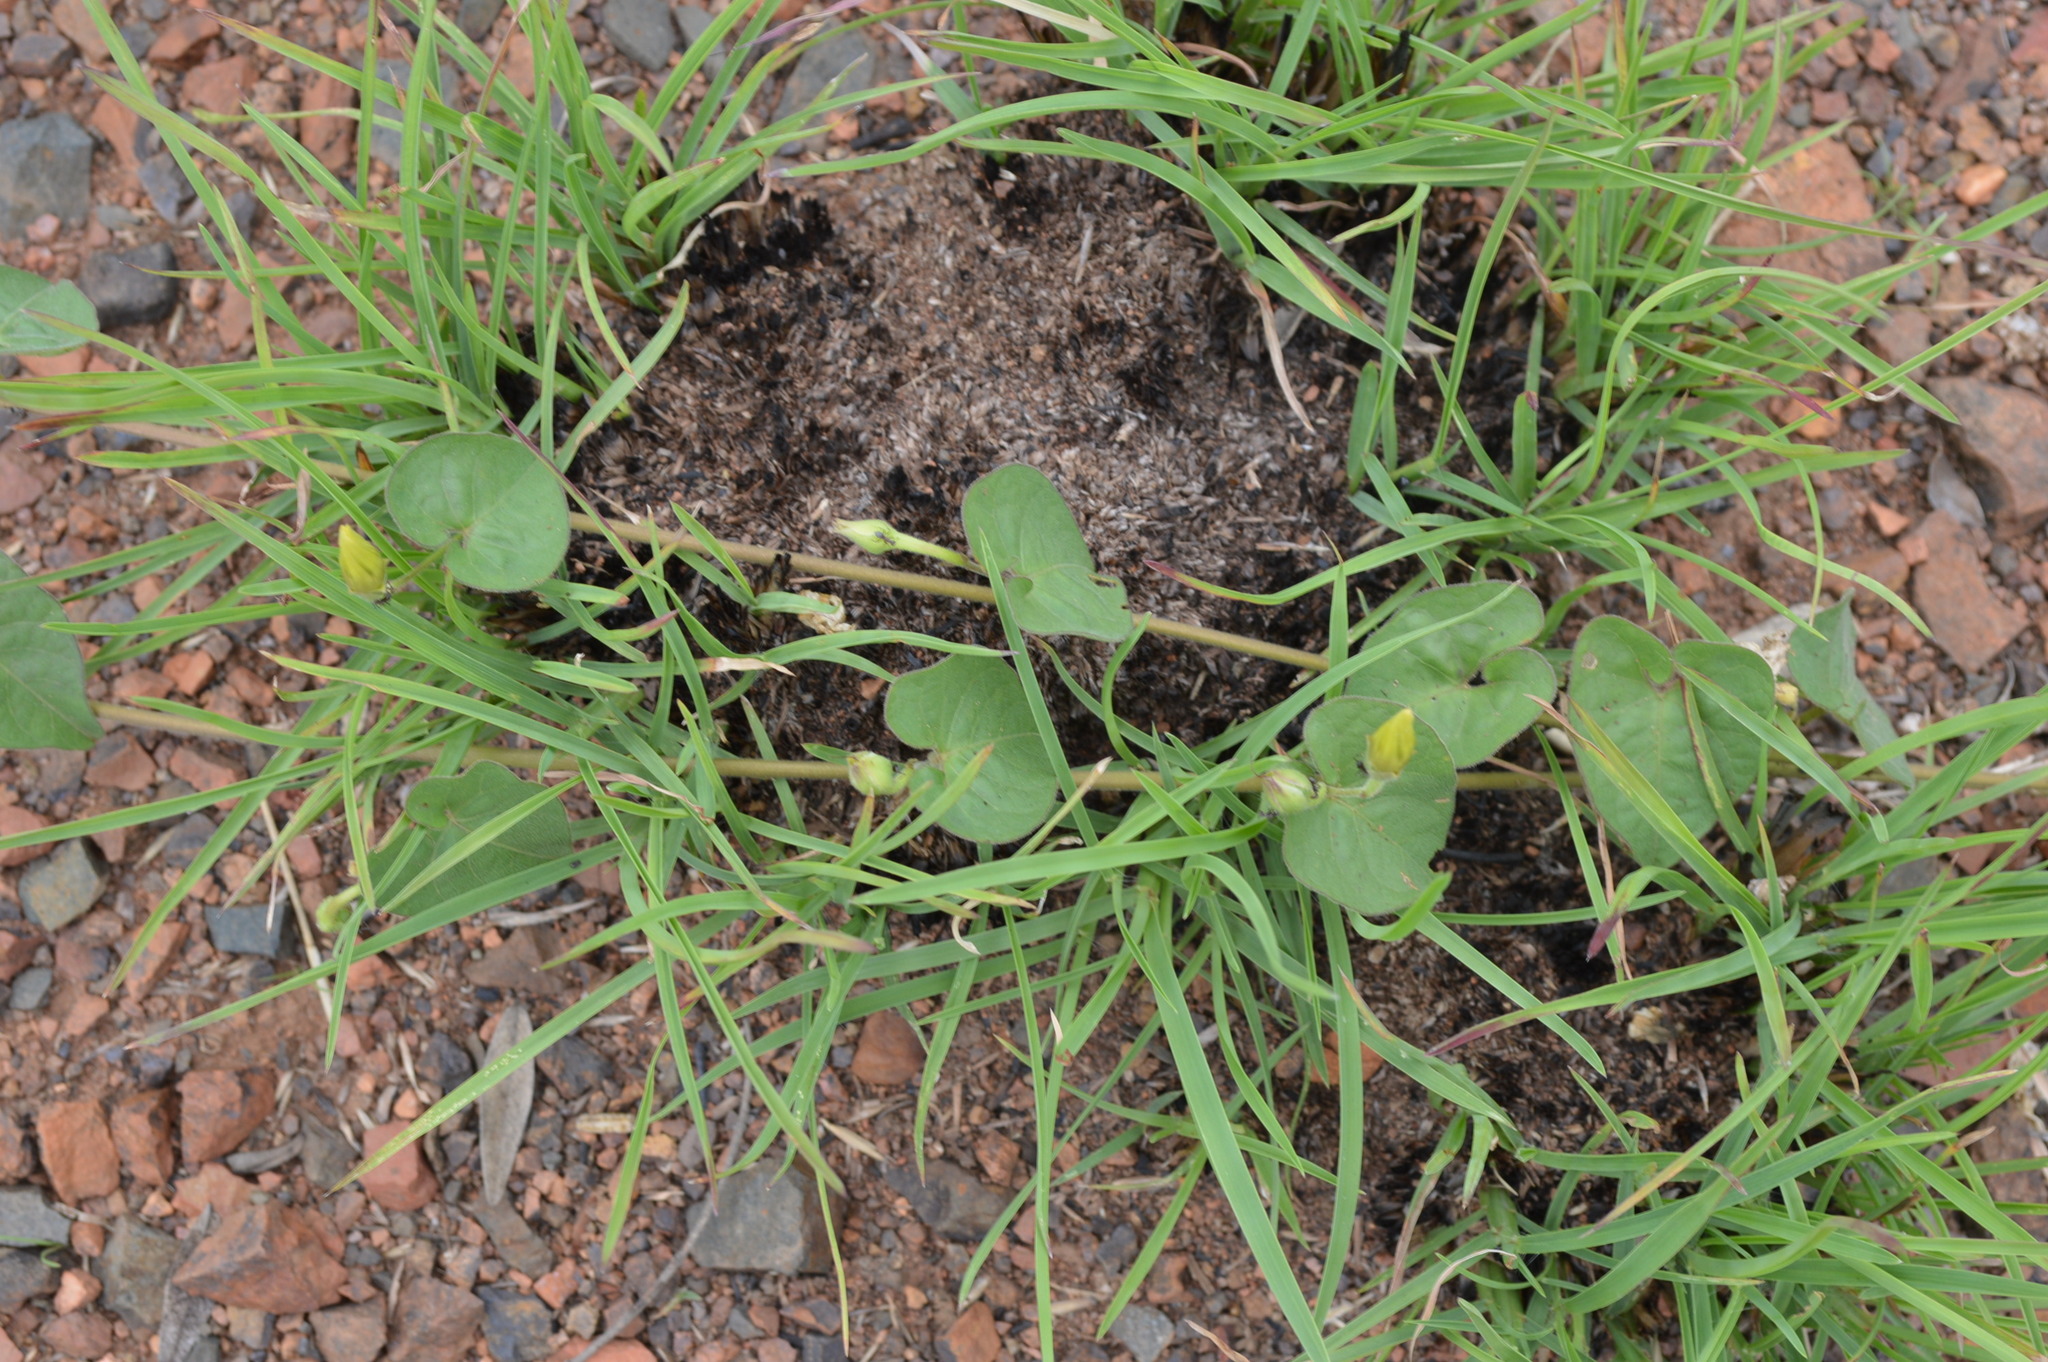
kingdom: Plantae
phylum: Tracheophyta
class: Magnoliopsida
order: Solanales
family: Convolvulaceae
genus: Ipomoea
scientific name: Ipomoea obscura
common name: Obscure morning-glory
